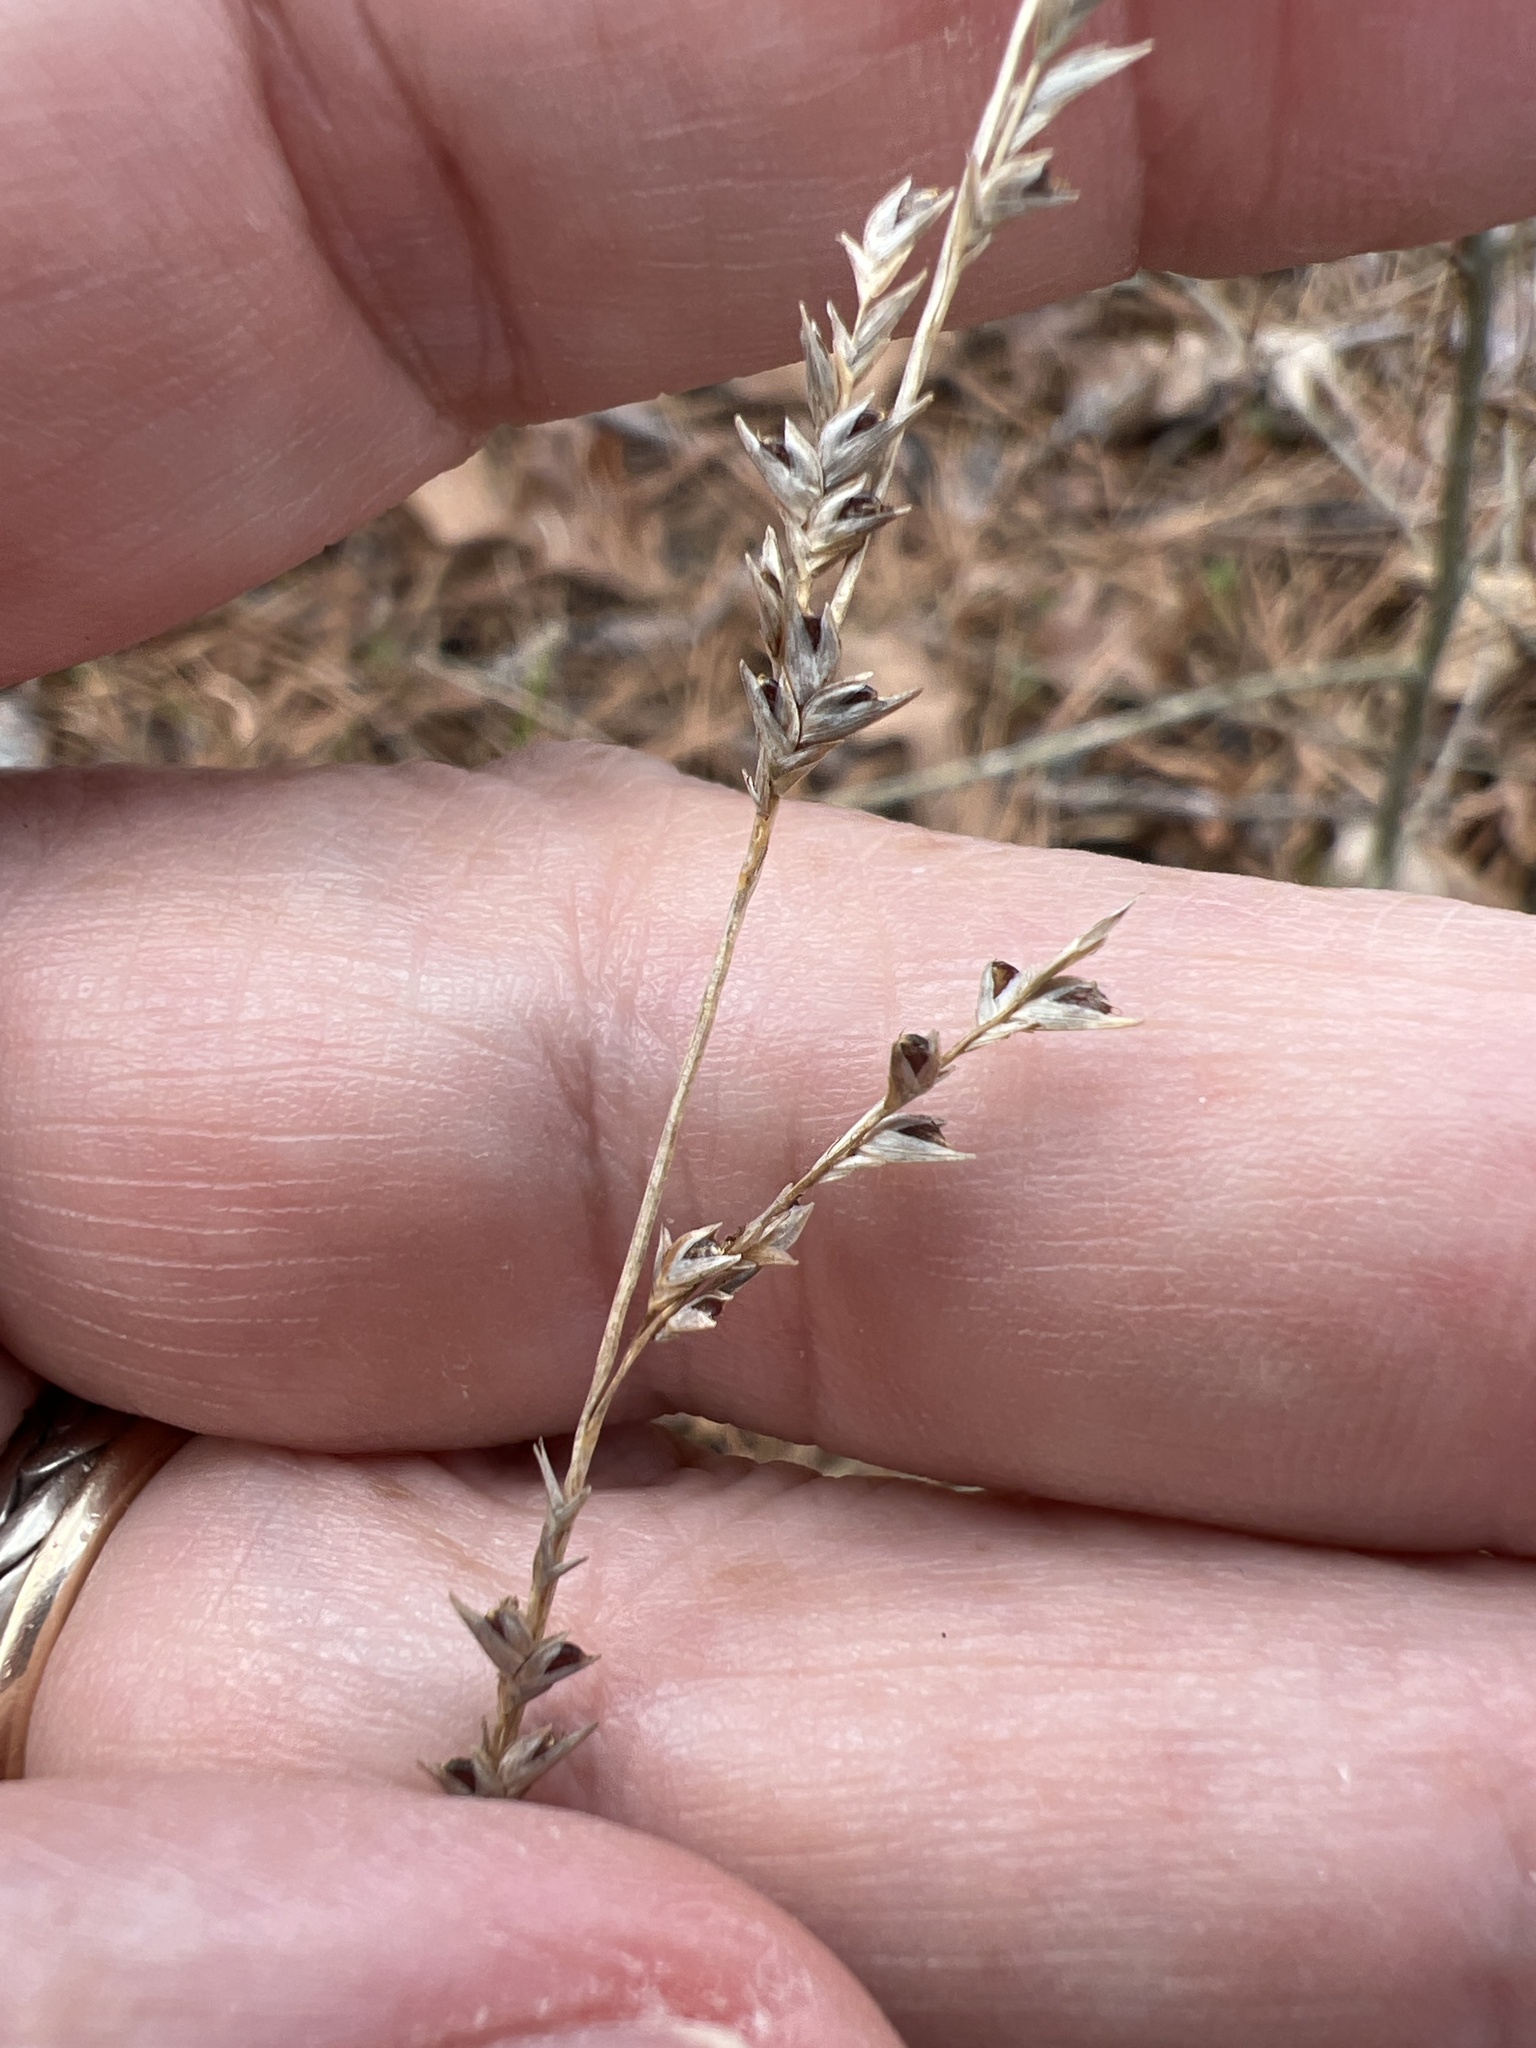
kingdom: Plantae
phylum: Tracheophyta
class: Liliopsida
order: Poales
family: Poaceae
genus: Chasmanthium
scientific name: Chasmanthium laxum
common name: Slender chasmanthium
